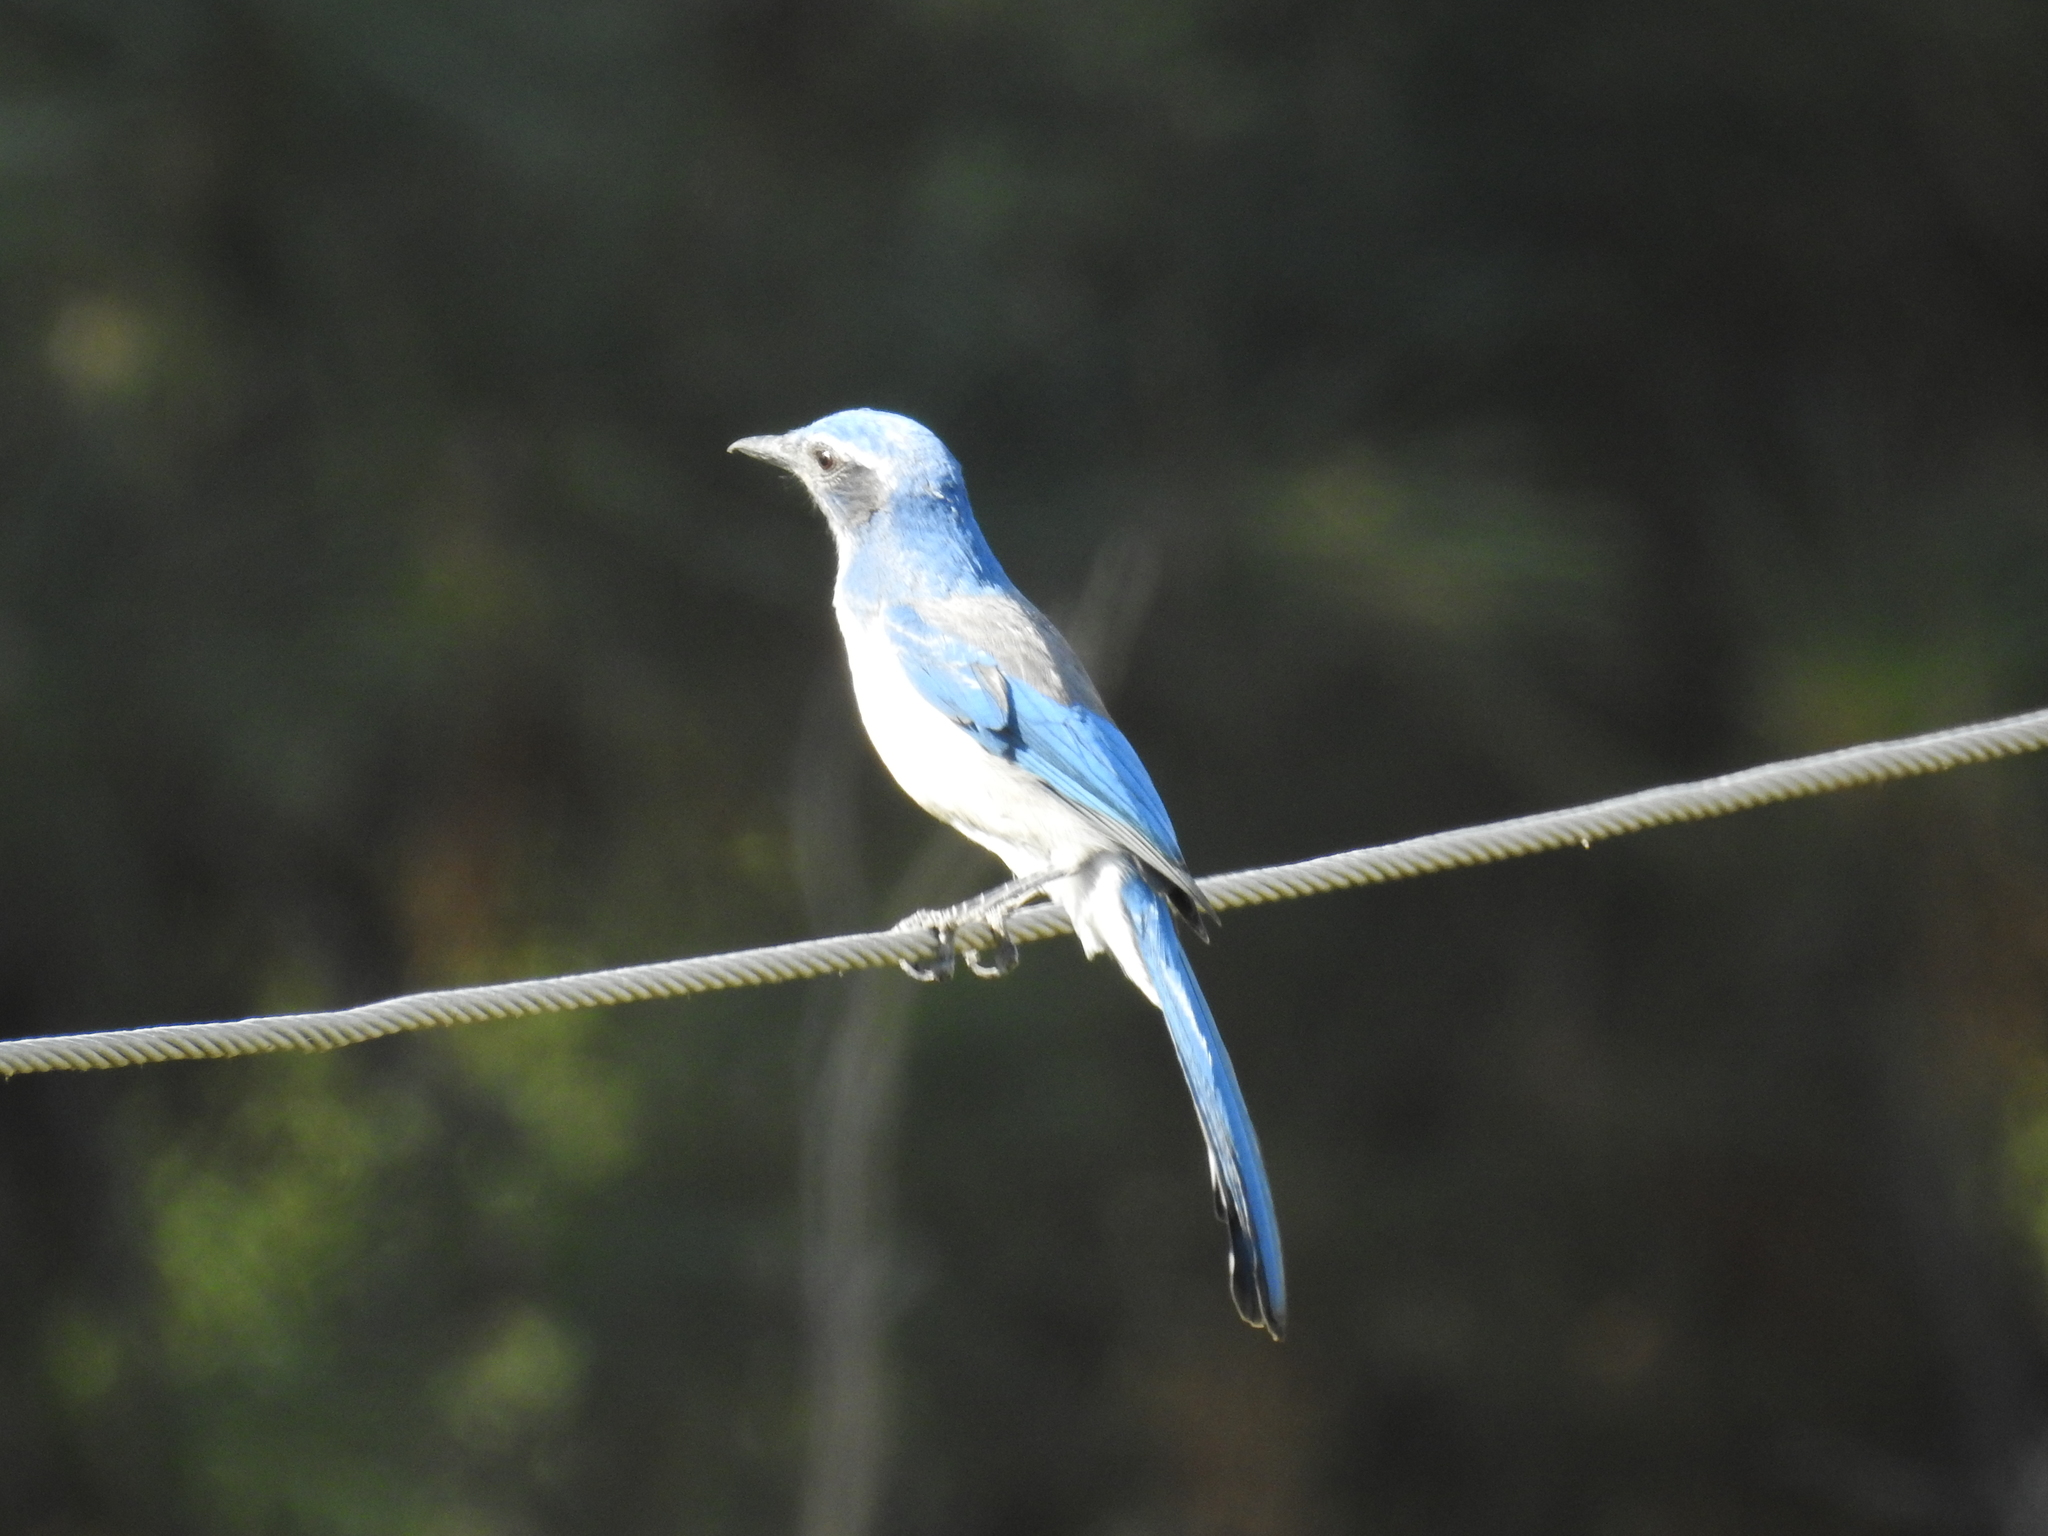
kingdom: Animalia
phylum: Chordata
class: Aves
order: Passeriformes
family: Corvidae
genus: Aphelocoma
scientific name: Aphelocoma californica
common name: California scrub-jay
